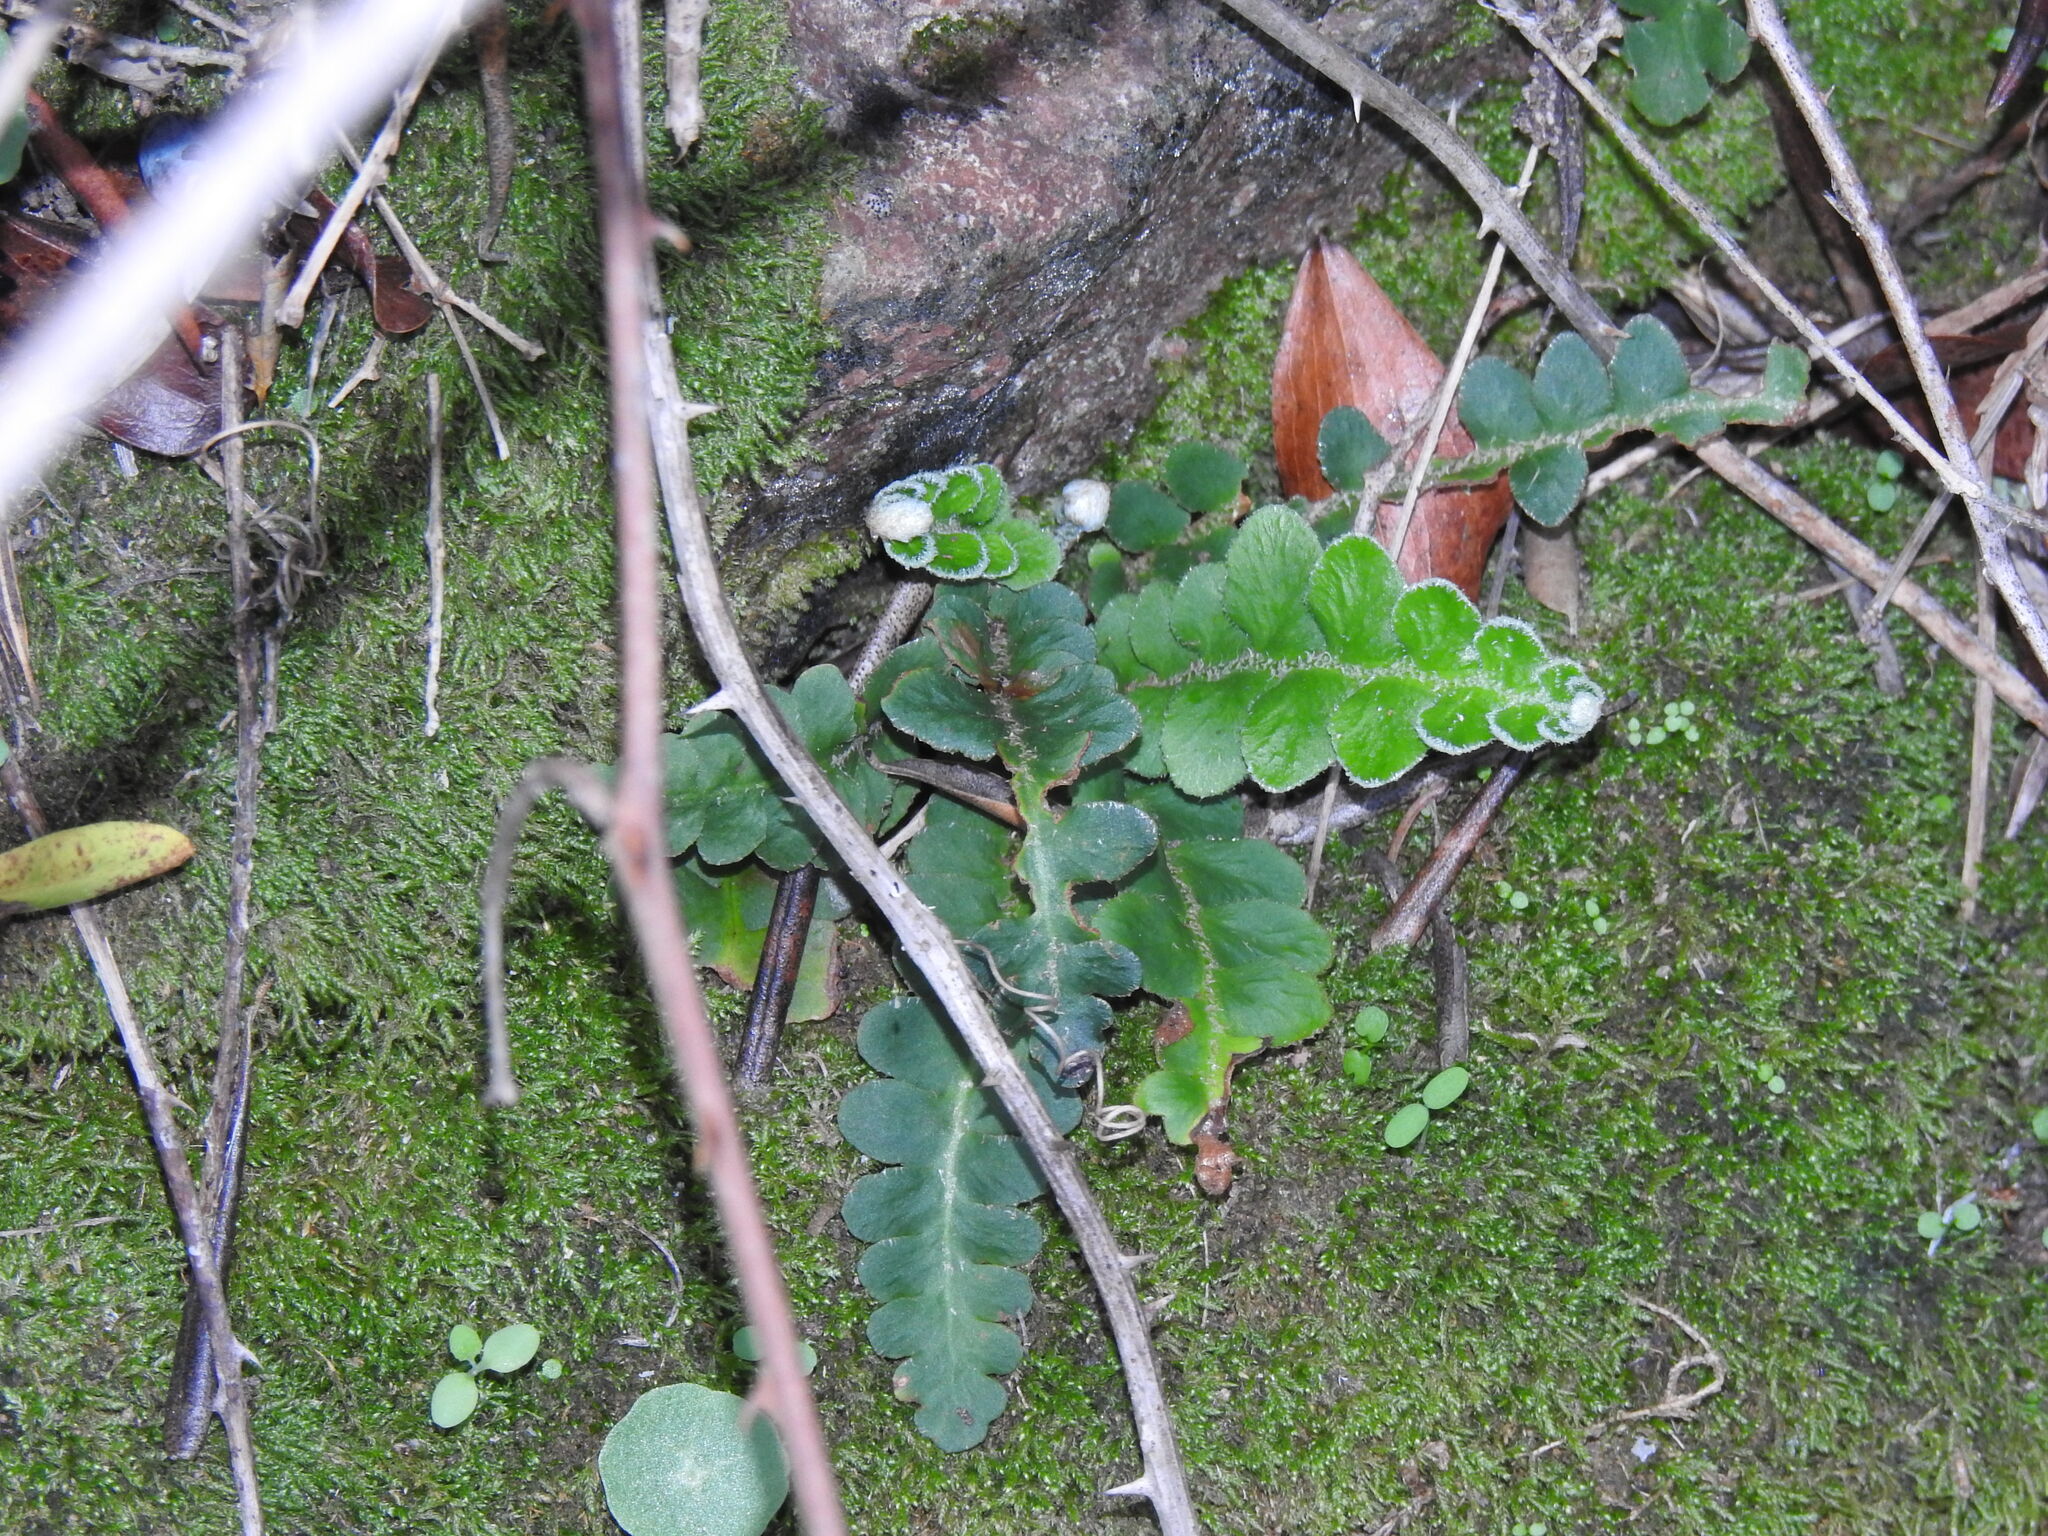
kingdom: Plantae
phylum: Tracheophyta
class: Polypodiopsida
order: Polypodiales
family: Aspleniaceae
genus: Asplenium
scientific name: Asplenium ceterach
